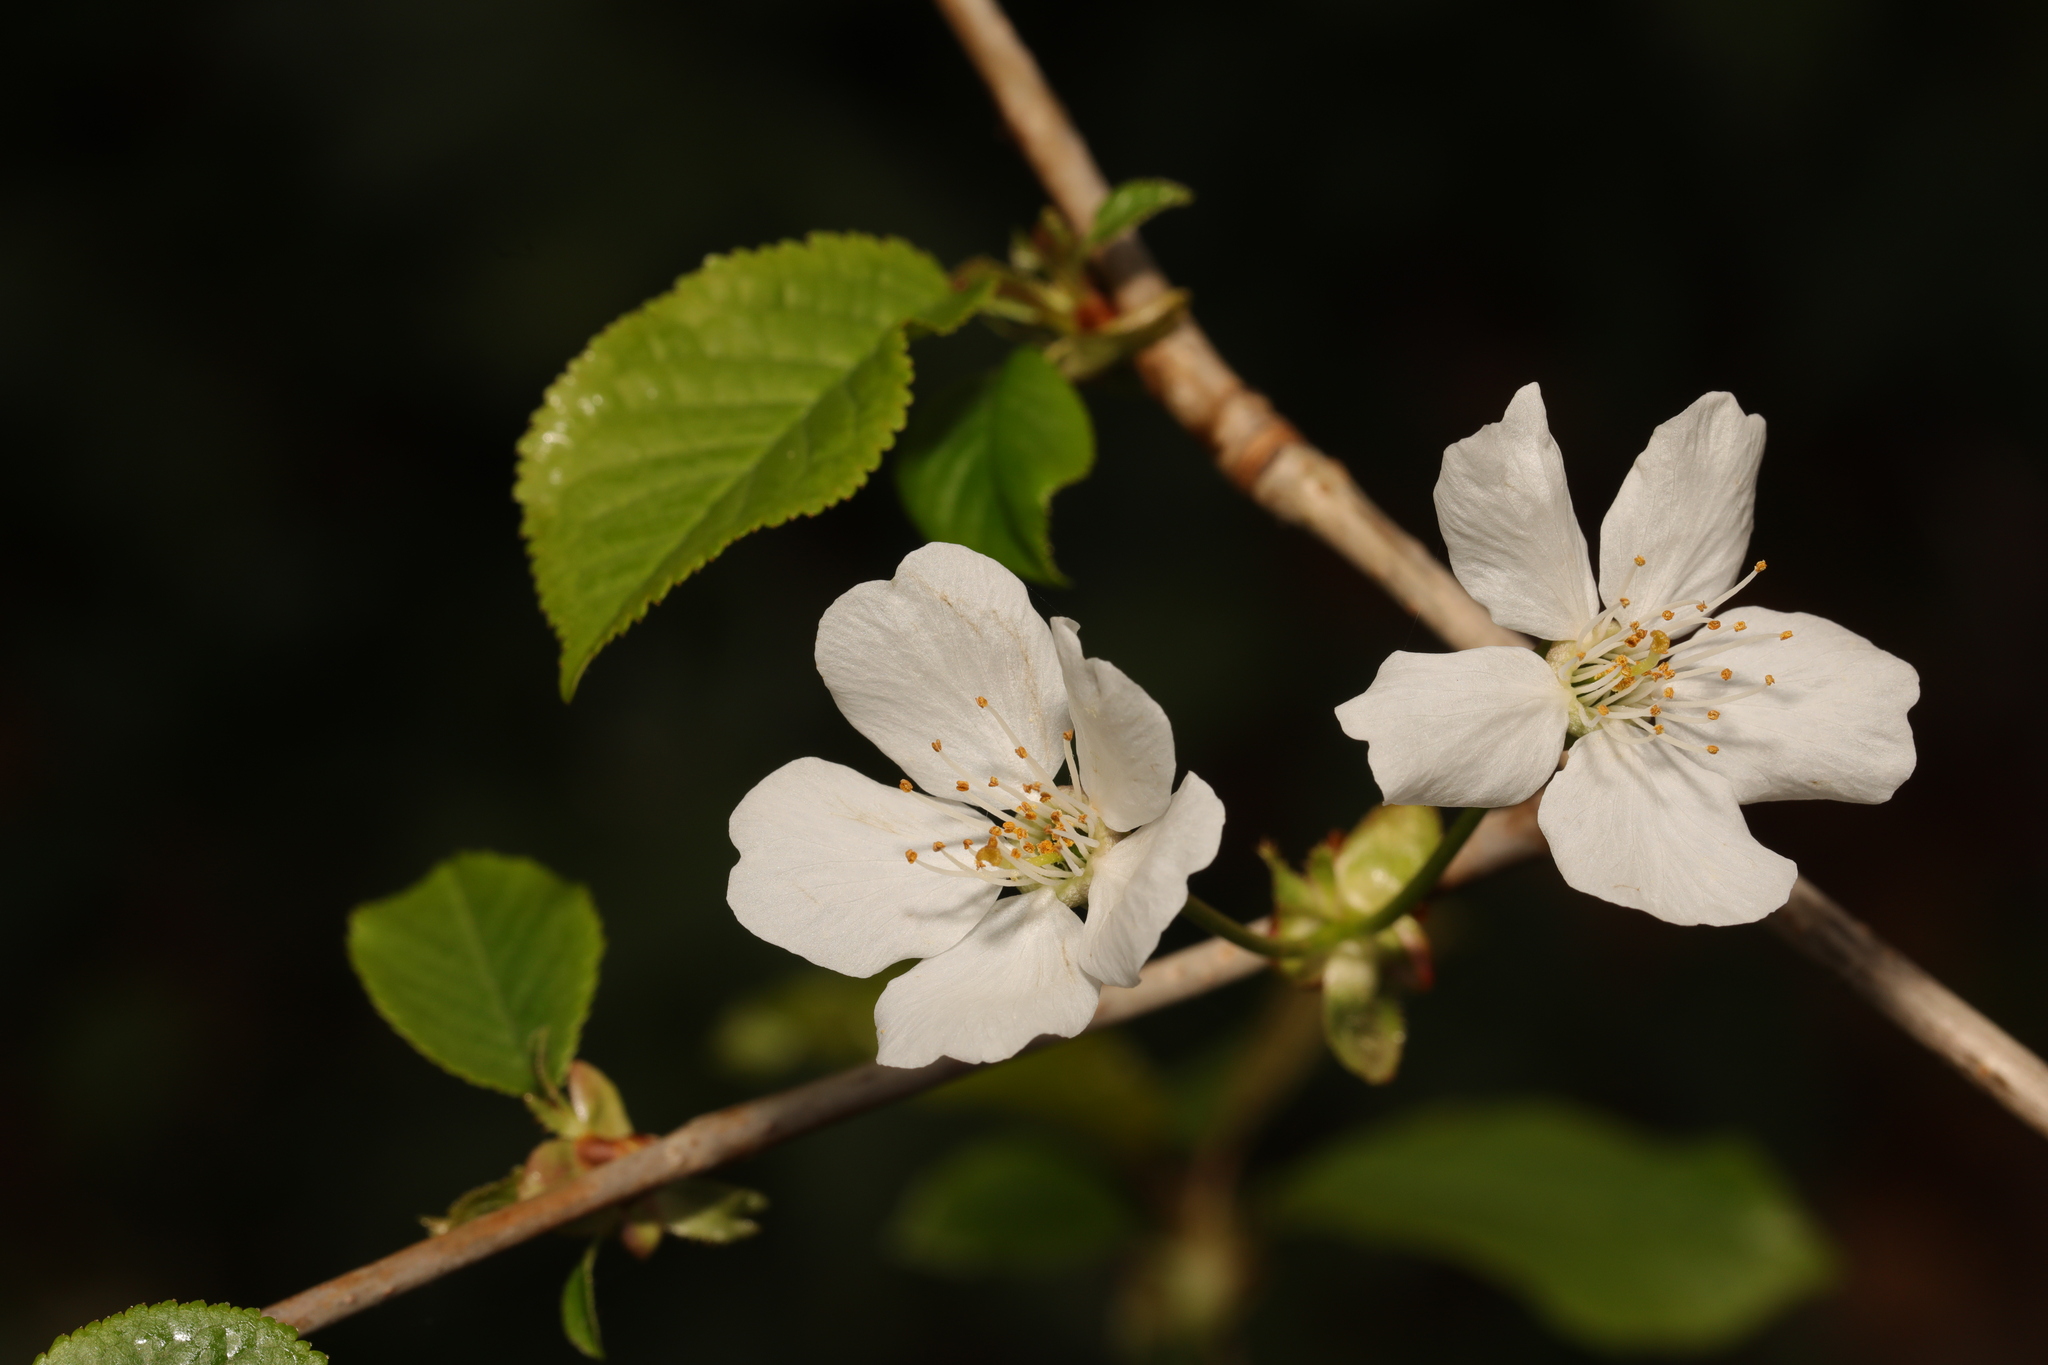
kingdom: Plantae
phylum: Tracheophyta
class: Magnoliopsida
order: Rosales
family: Rosaceae
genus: Prunus
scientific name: Prunus avium
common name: Sweet cherry
